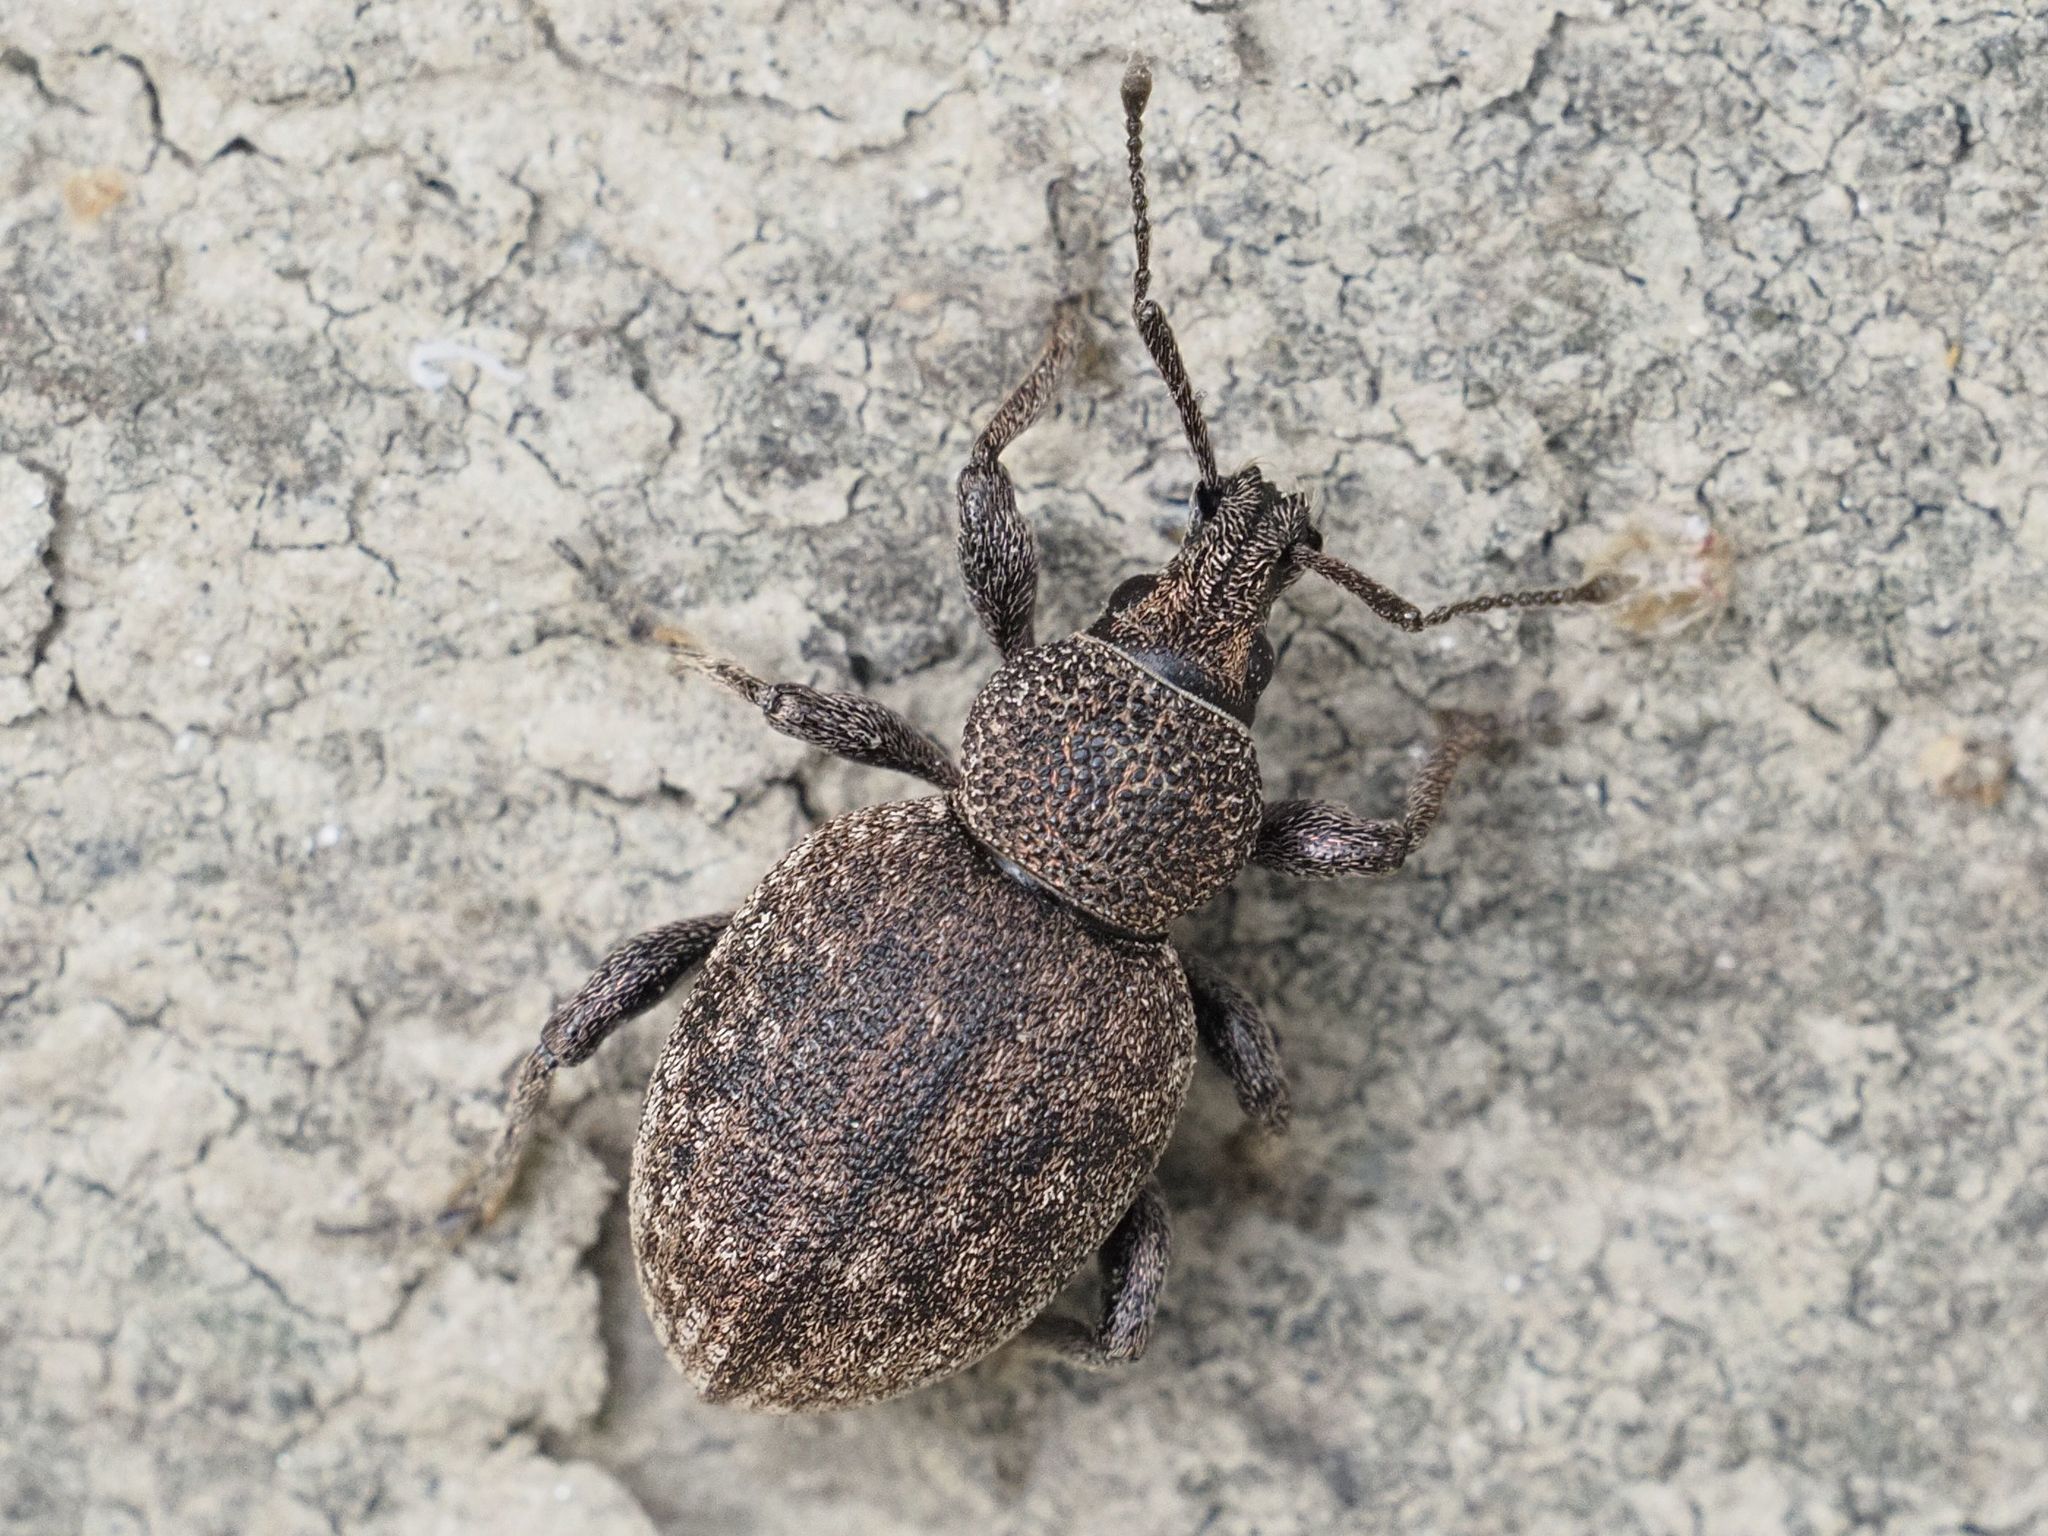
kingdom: Animalia
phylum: Arthropoda
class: Insecta
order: Coleoptera
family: Curculionidae
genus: Otiorhynchus
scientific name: Otiorhynchus ligustici
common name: Weevil
